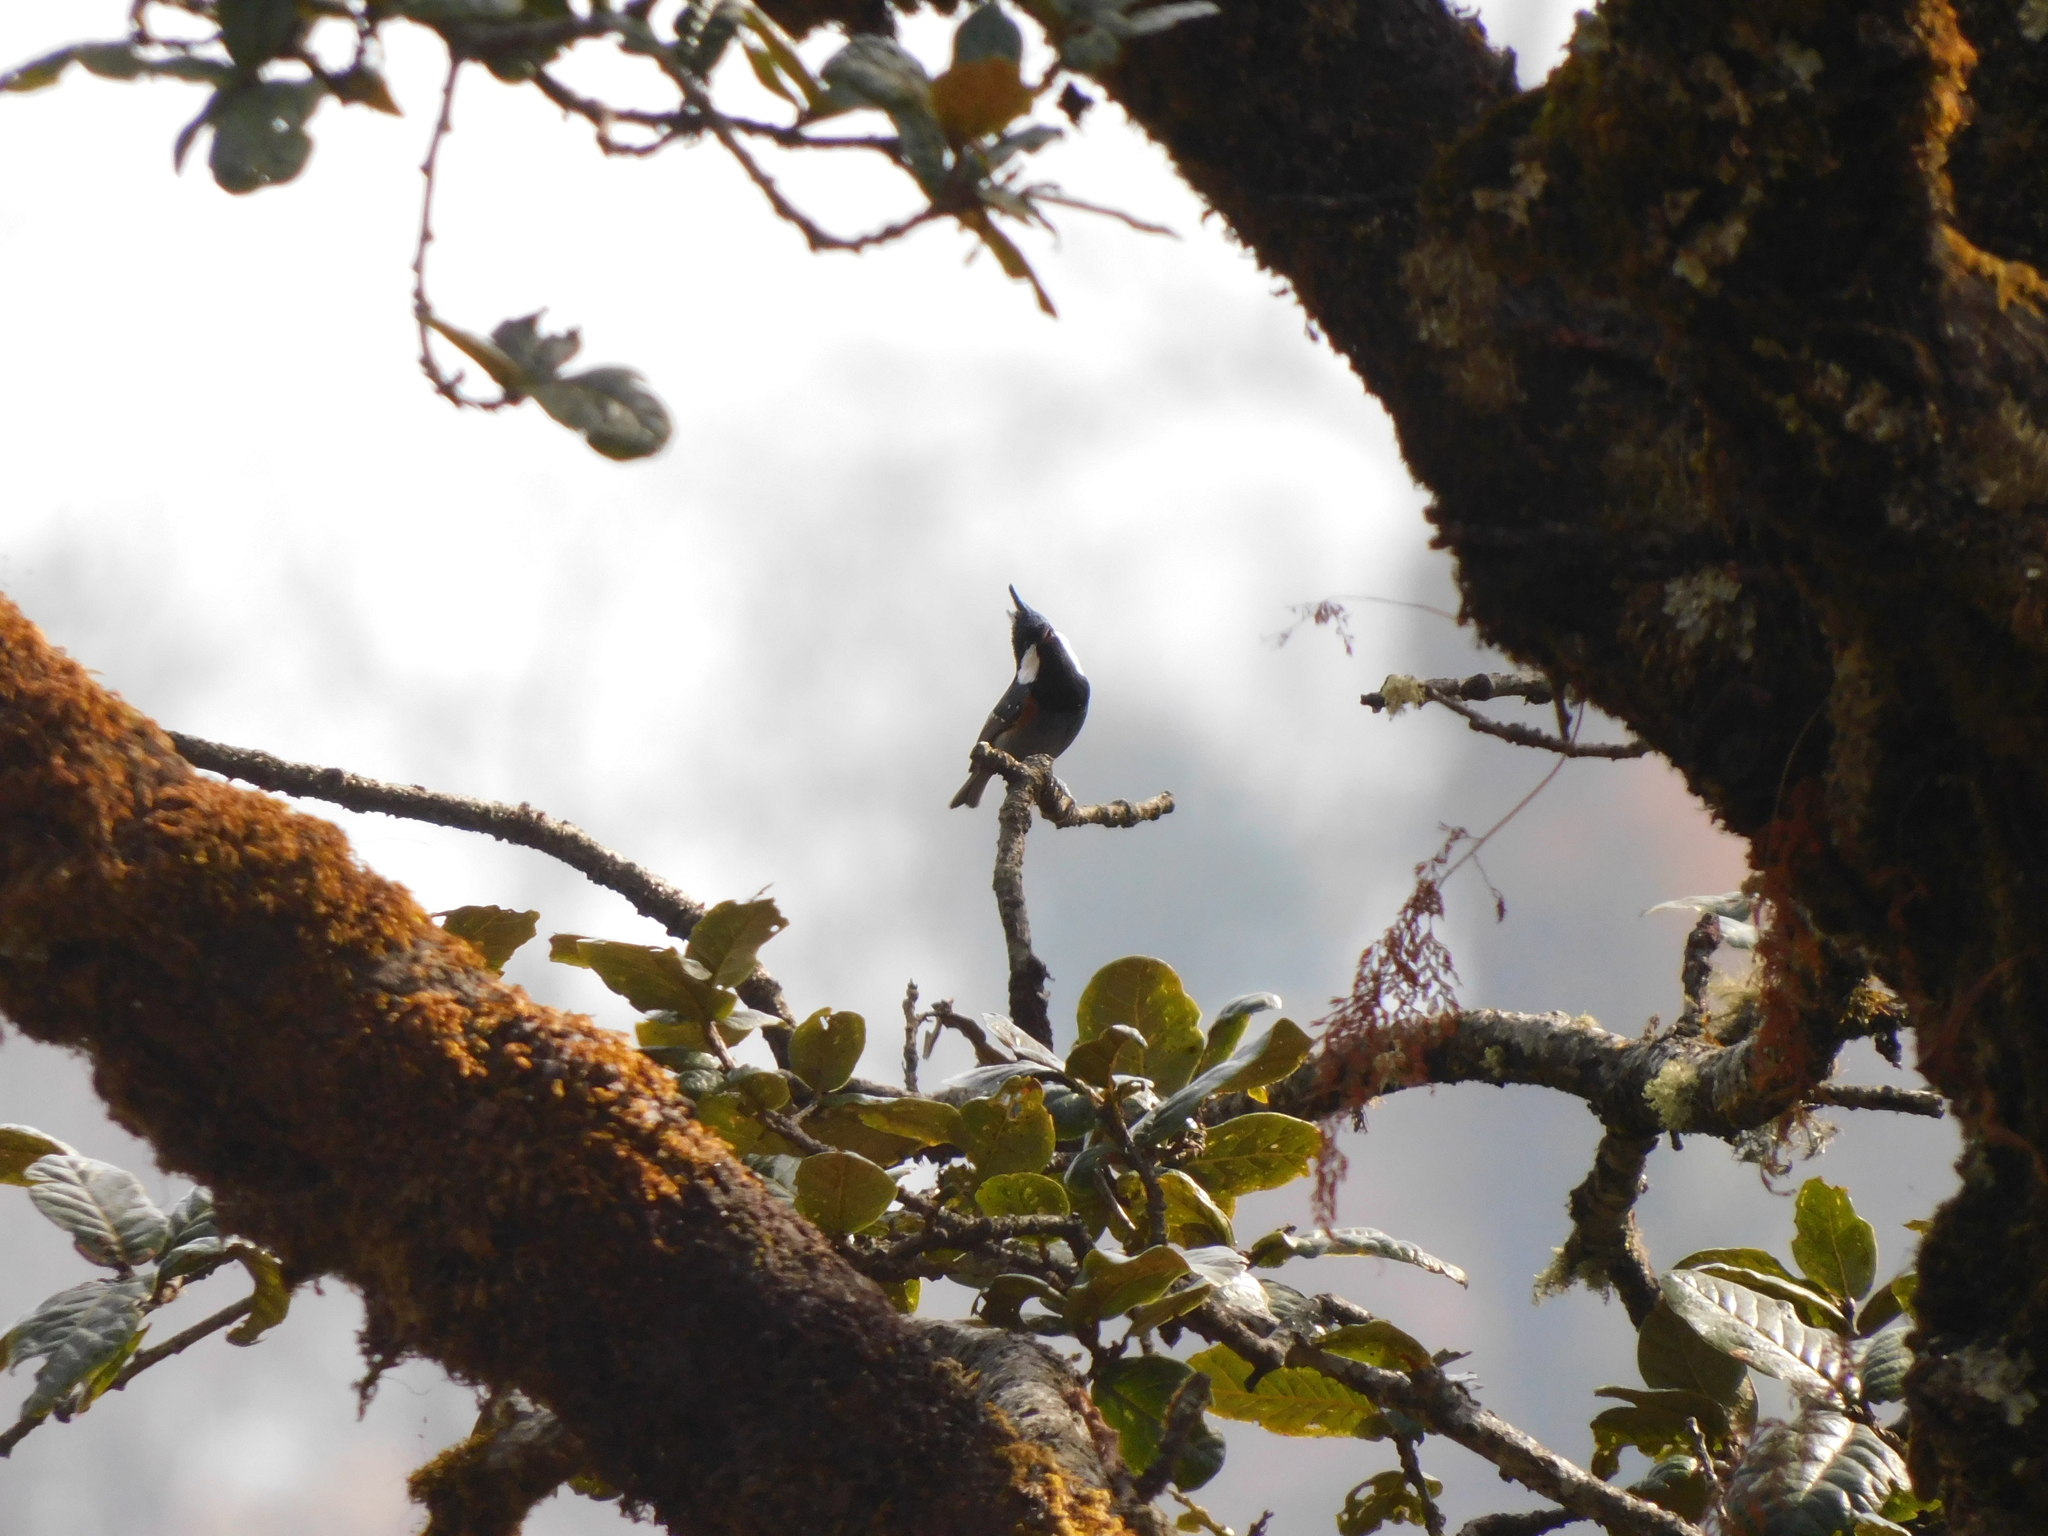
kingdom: Animalia
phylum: Chordata
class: Aves
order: Passeriformes
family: Paridae
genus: Periparus
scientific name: Periparus ater
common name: Coal tit
